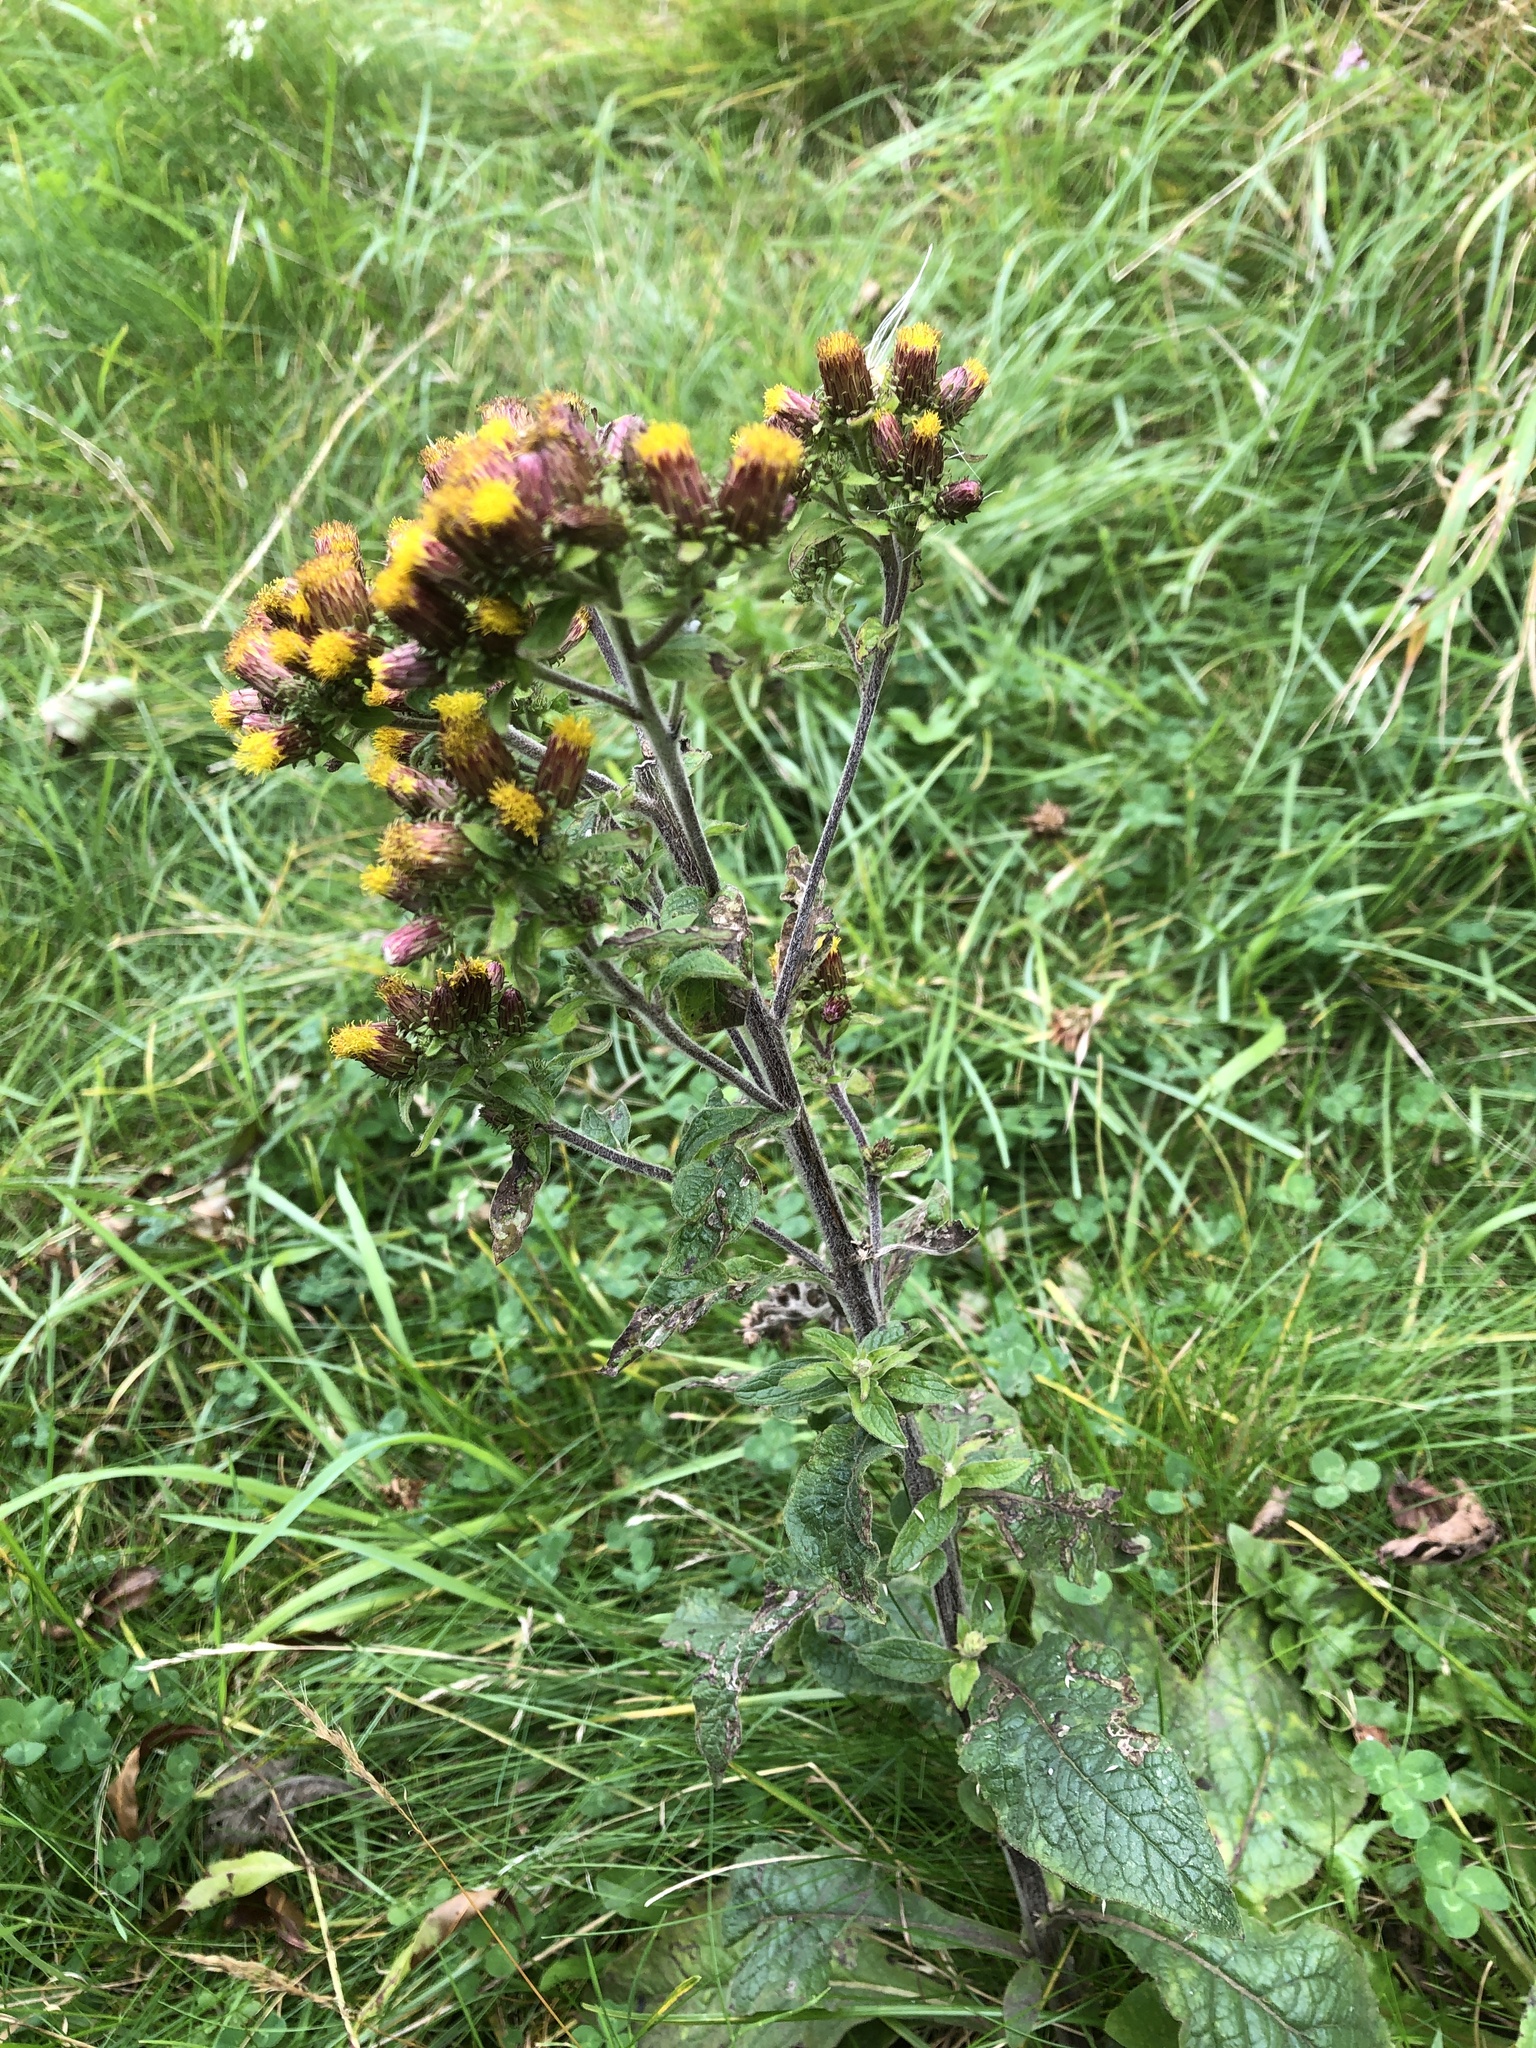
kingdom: Plantae
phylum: Tracheophyta
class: Magnoliopsida
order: Asterales
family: Asteraceae
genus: Pentanema
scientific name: Pentanema squarrosum
